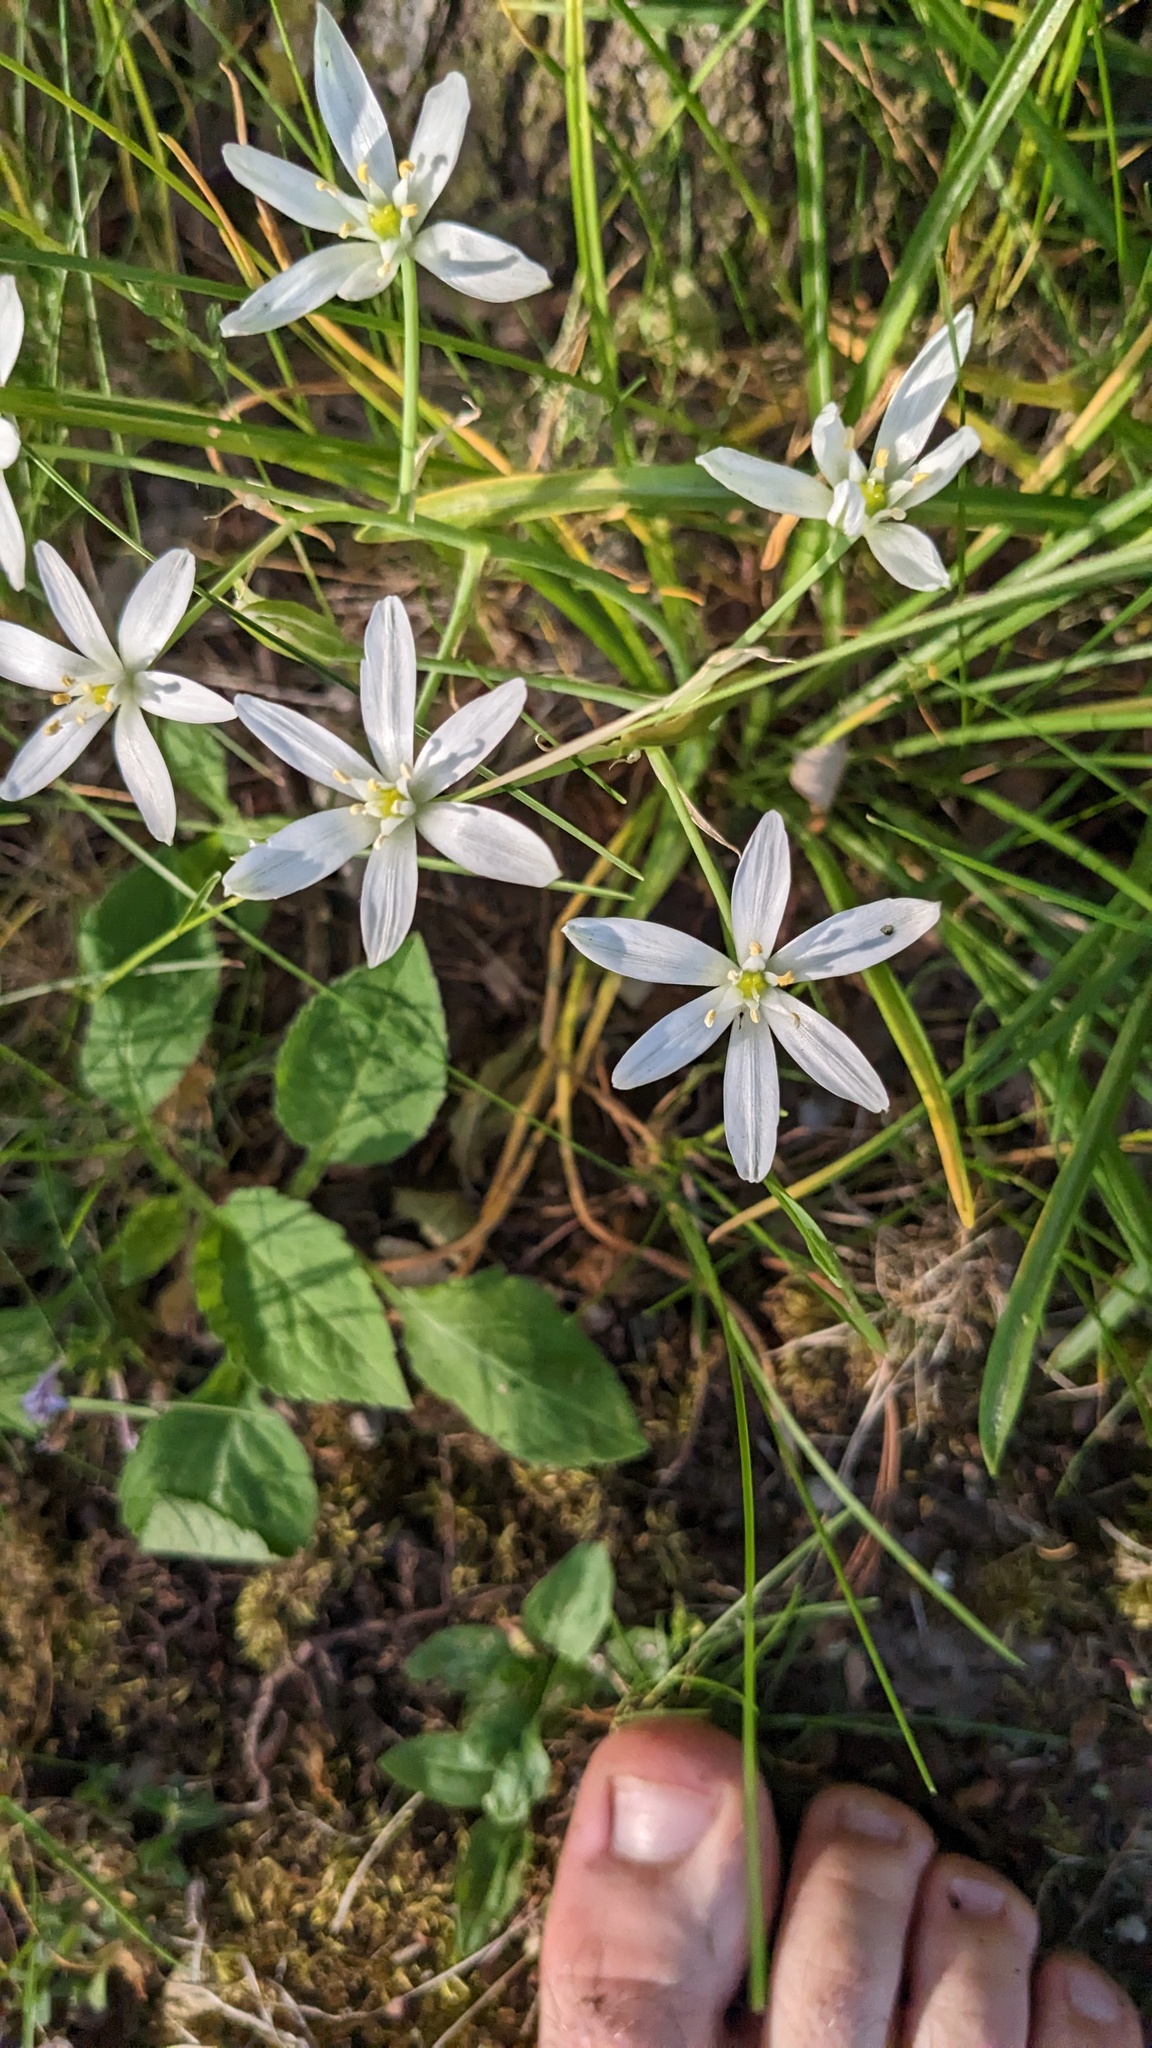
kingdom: Plantae
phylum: Tracheophyta
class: Liliopsida
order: Asparagales
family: Asparagaceae
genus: Ornithogalum
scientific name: Ornithogalum umbellatum
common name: Garden star-of-bethlehem
